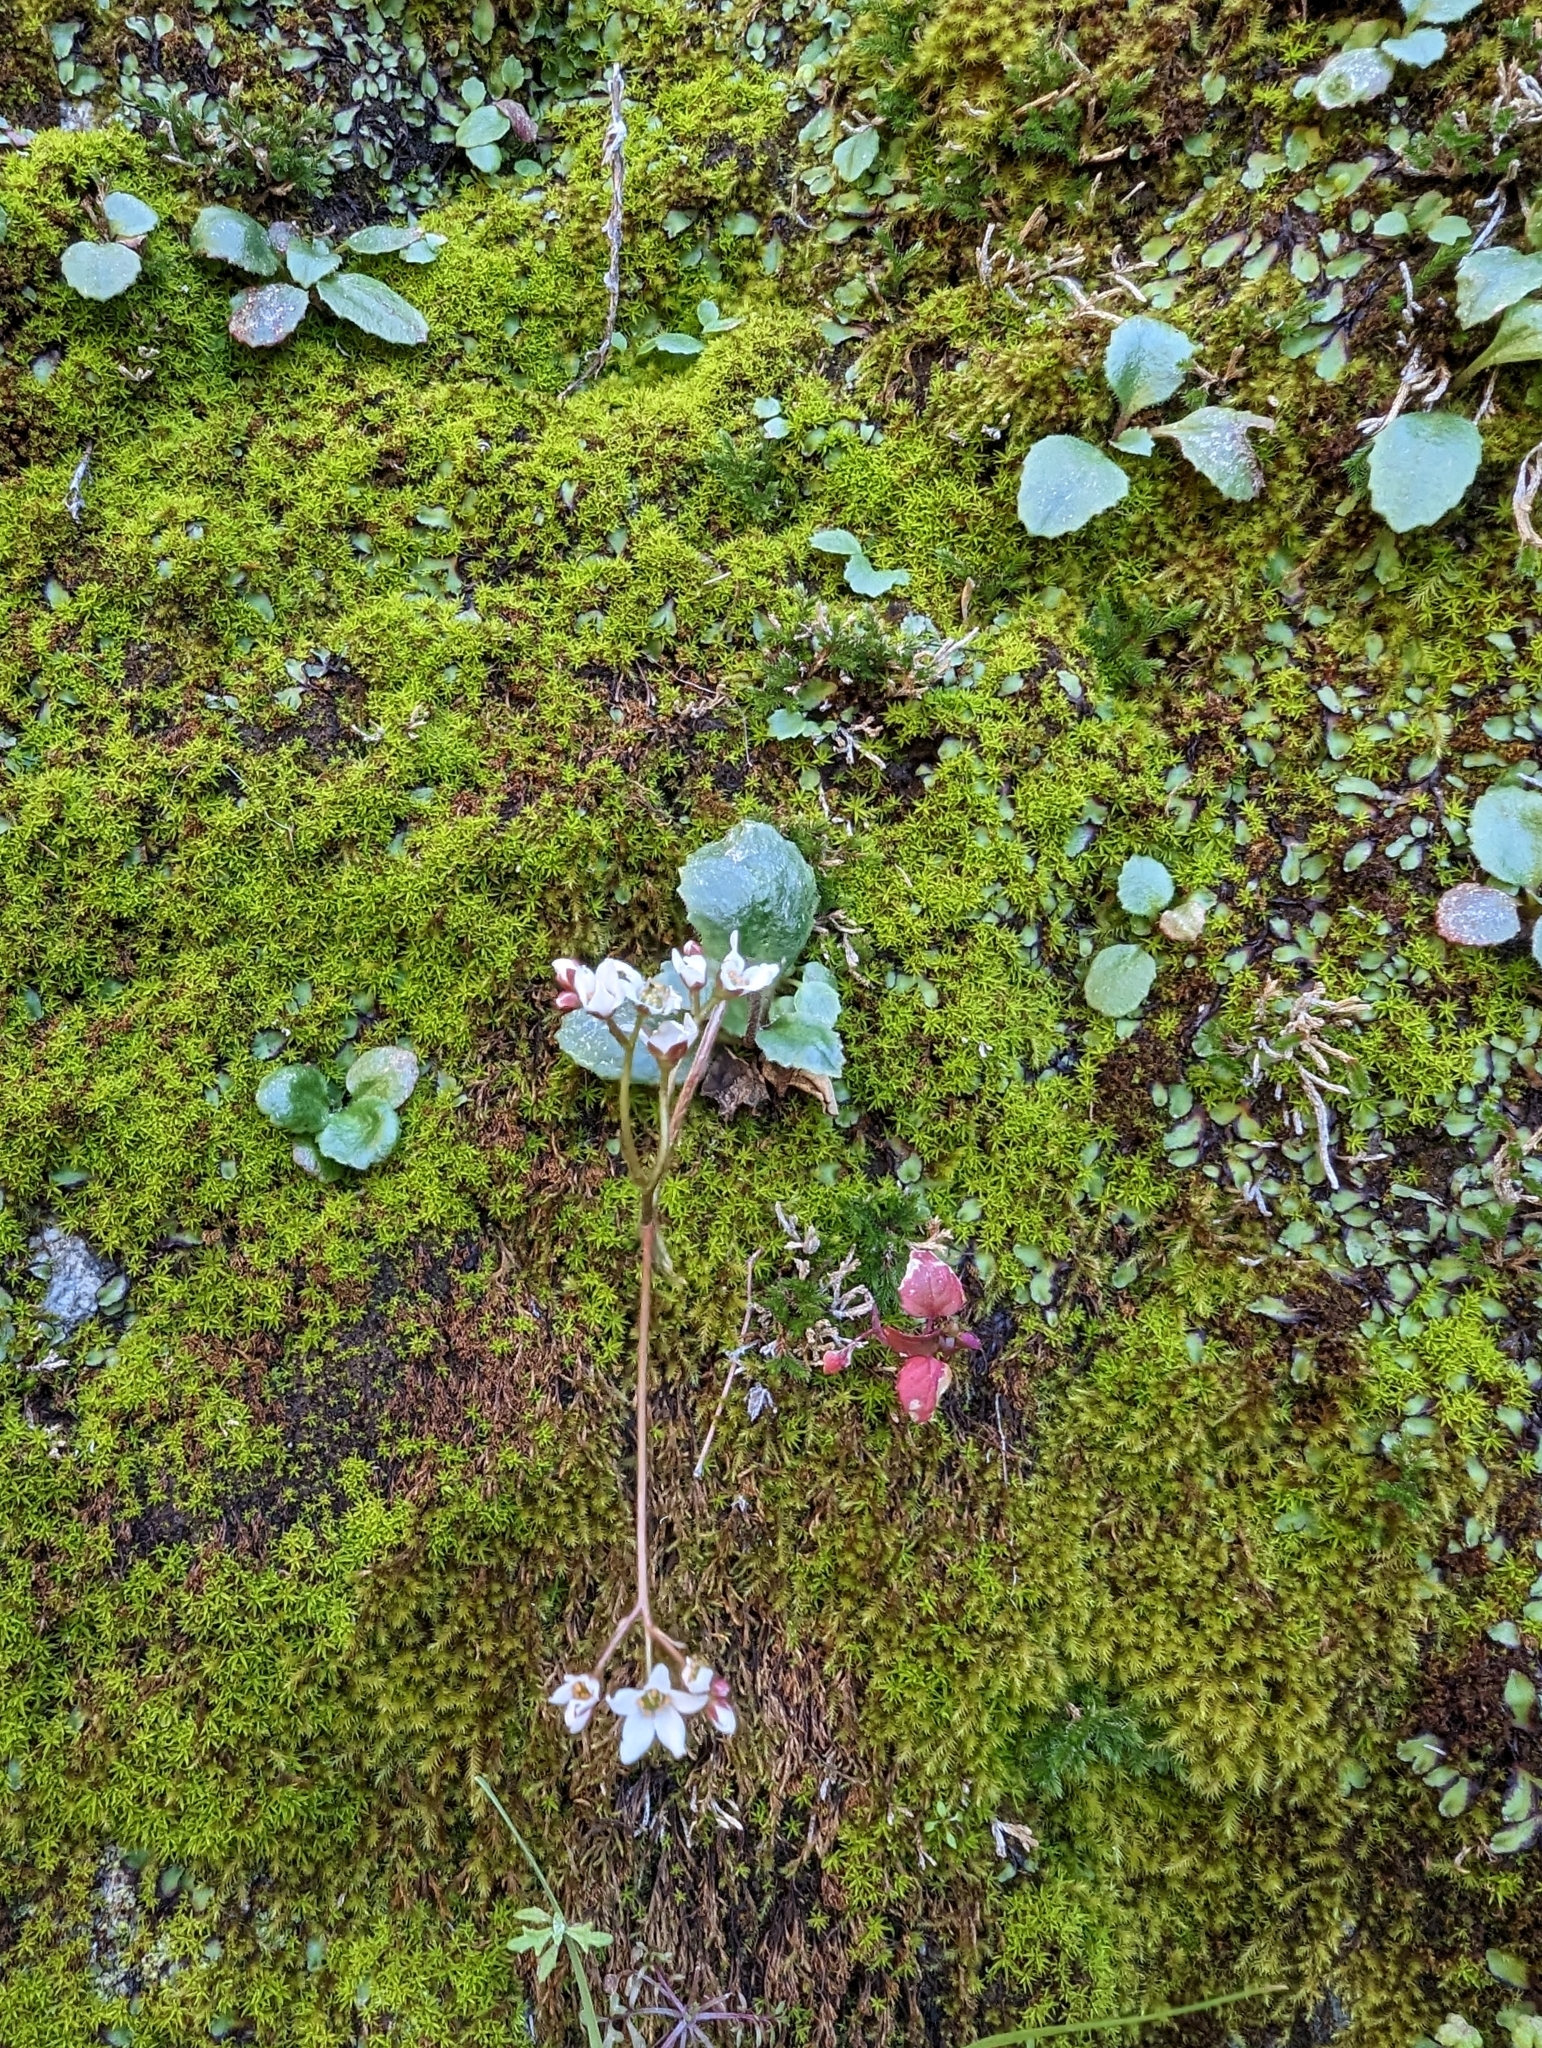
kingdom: Plantae
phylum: Tracheophyta
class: Magnoliopsida
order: Saxifragales
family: Saxifragaceae
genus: Micranthes
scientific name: Micranthes californica
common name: California saxifrage
